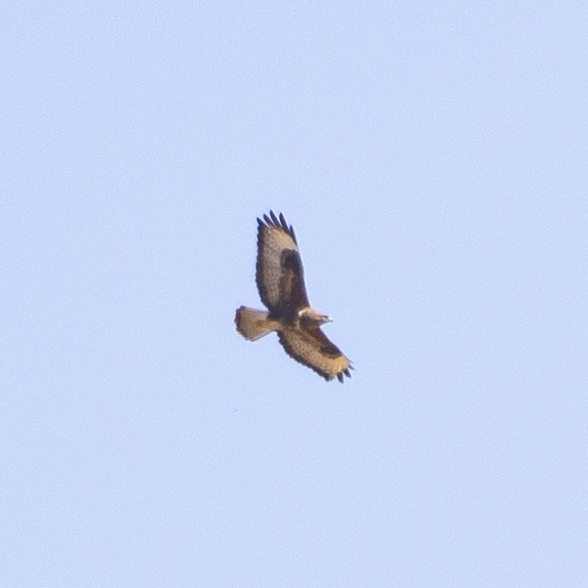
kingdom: Animalia
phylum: Chordata
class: Aves
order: Accipitriformes
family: Accipitridae
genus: Buteo
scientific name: Buteo buteo
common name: Common buzzard
